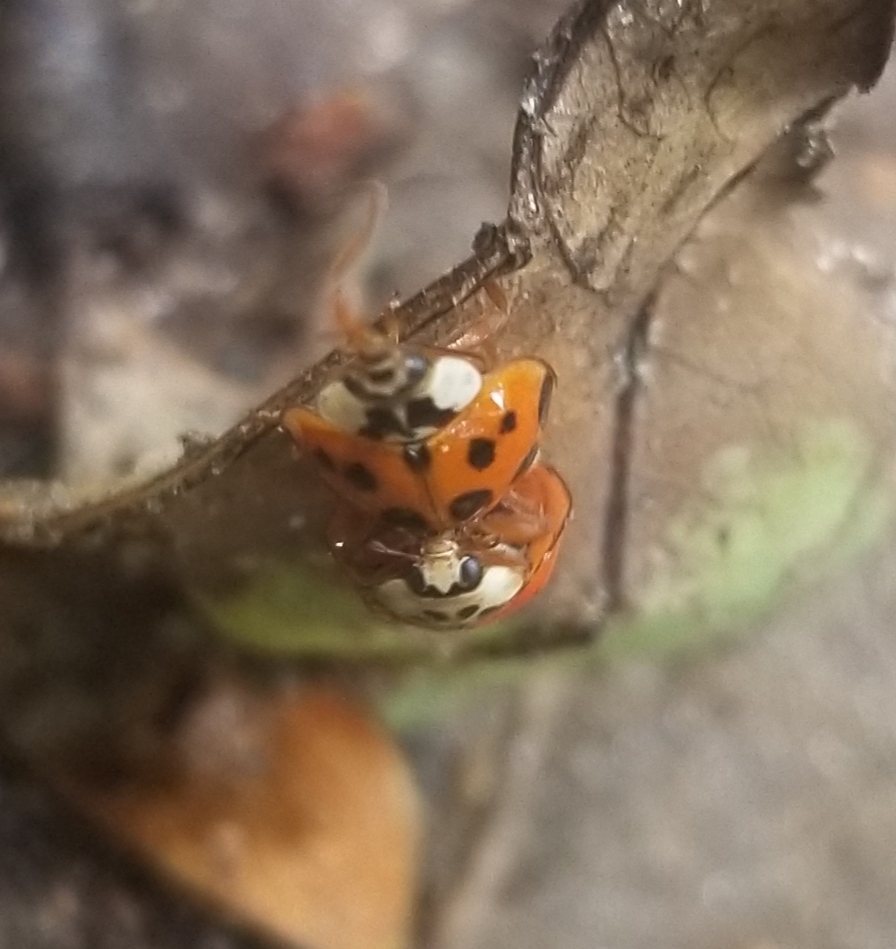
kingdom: Animalia
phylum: Arthropoda
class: Insecta
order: Coleoptera
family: Coccinellidae
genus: Harmonia
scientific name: Harmonia axyridis
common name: Harlequin ladybird
